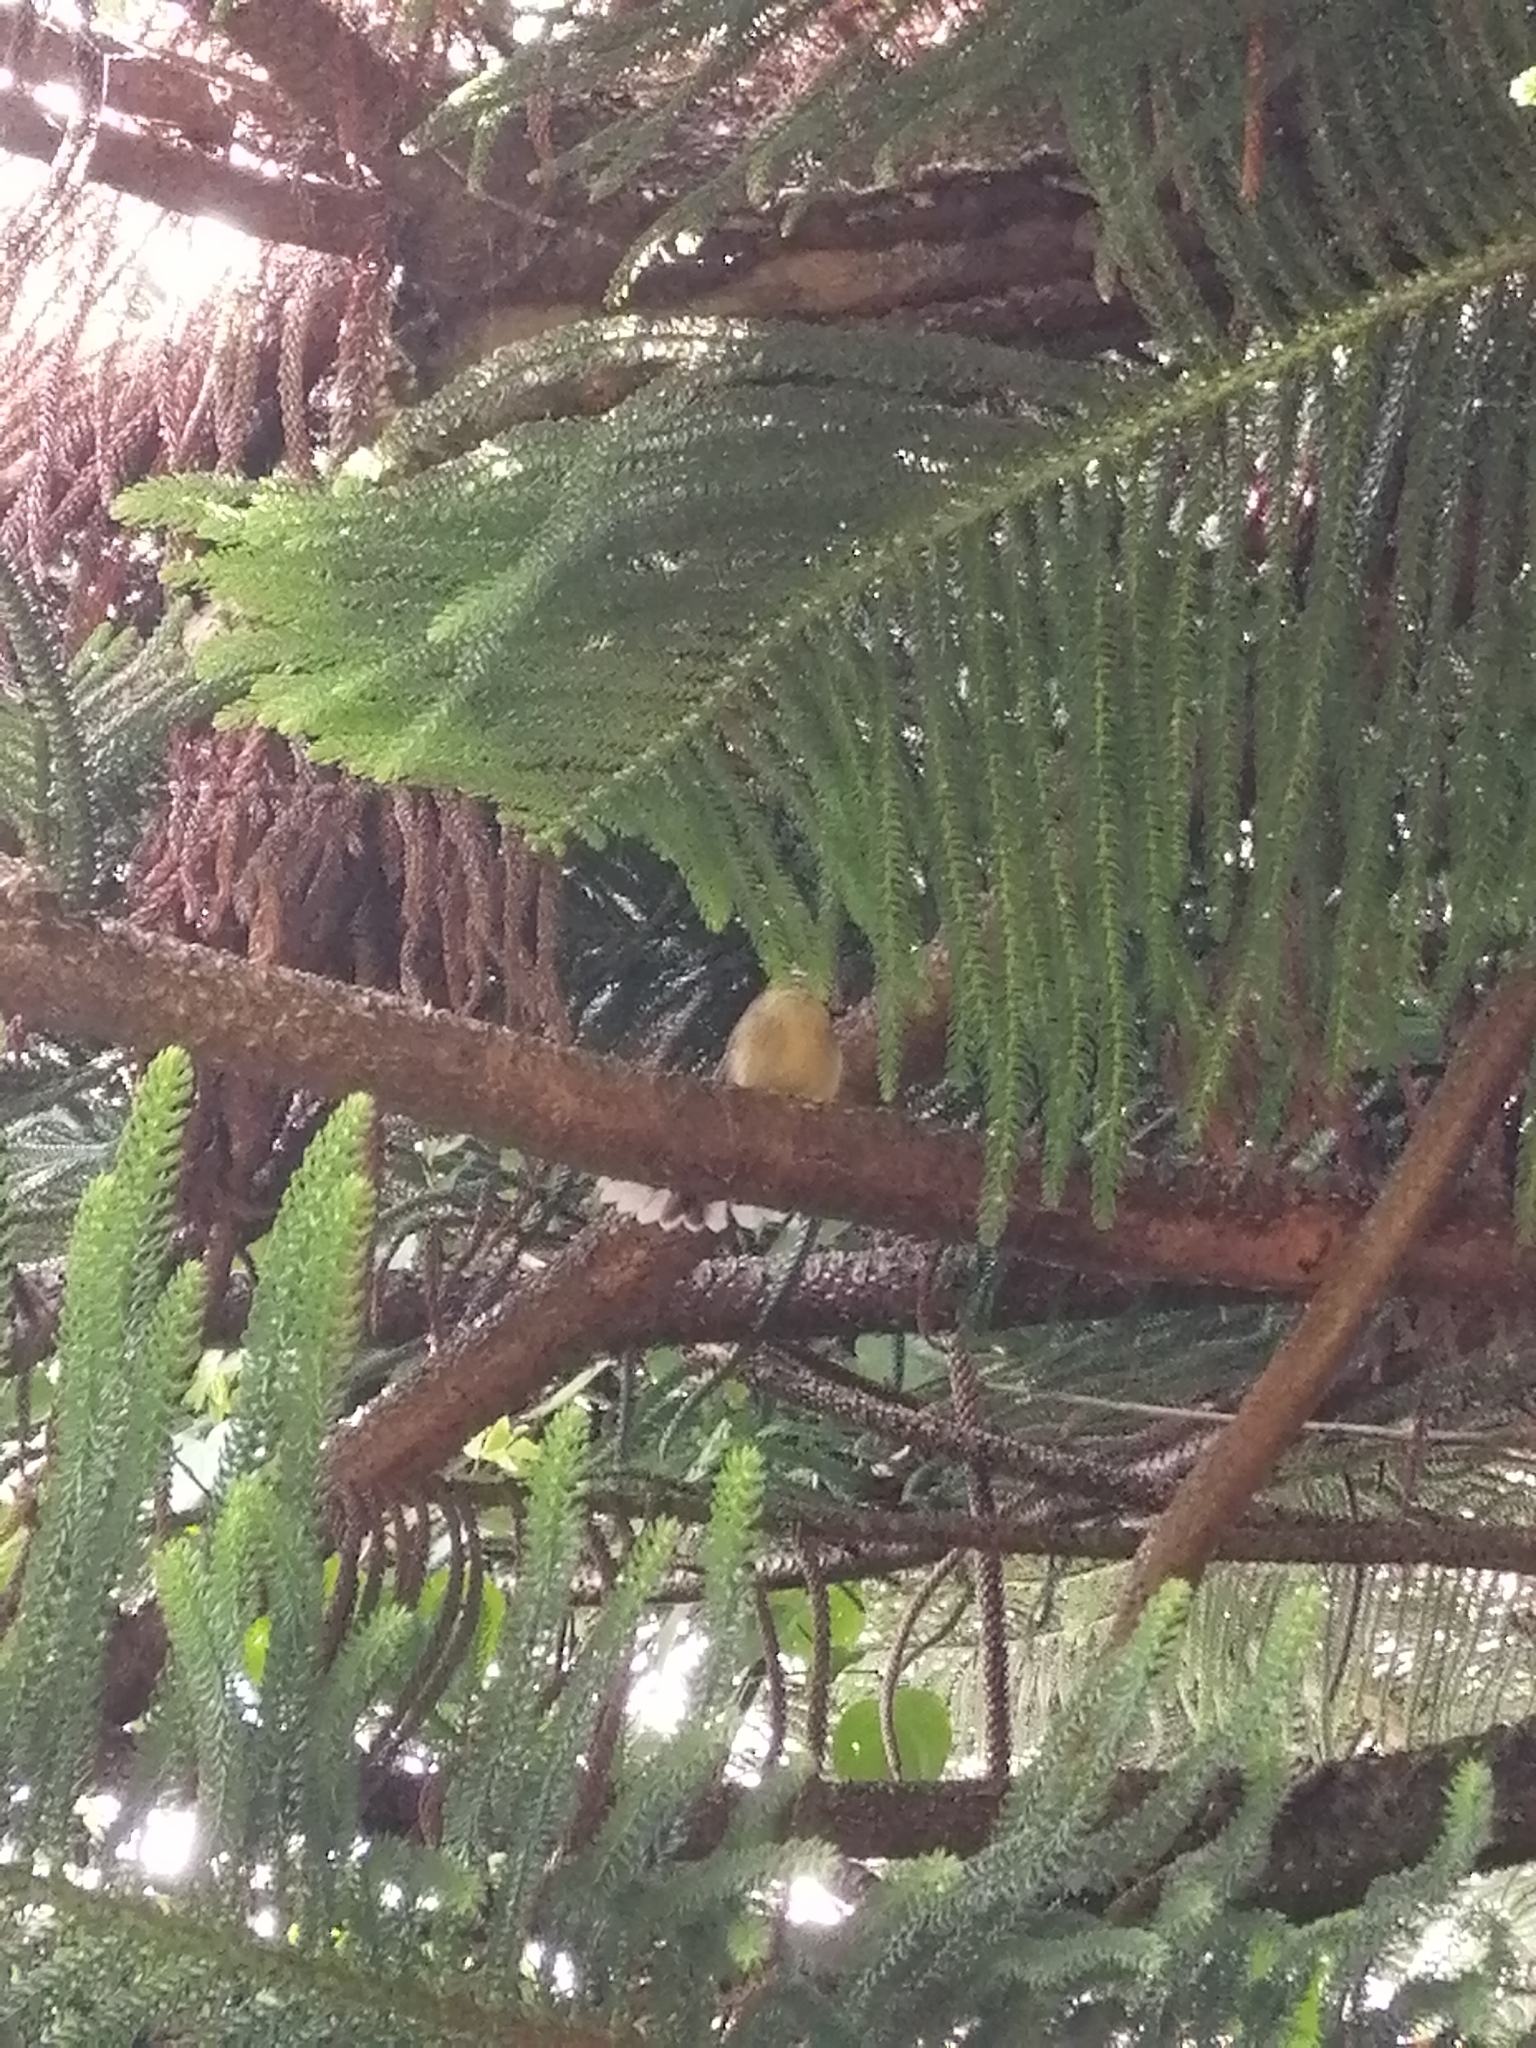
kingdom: Animalia
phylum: Chordata
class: Aves
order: Passeriformes
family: Rhipiduridae
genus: Rhipidura
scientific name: Rhipidura fuliginosa
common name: New zealand fantail
